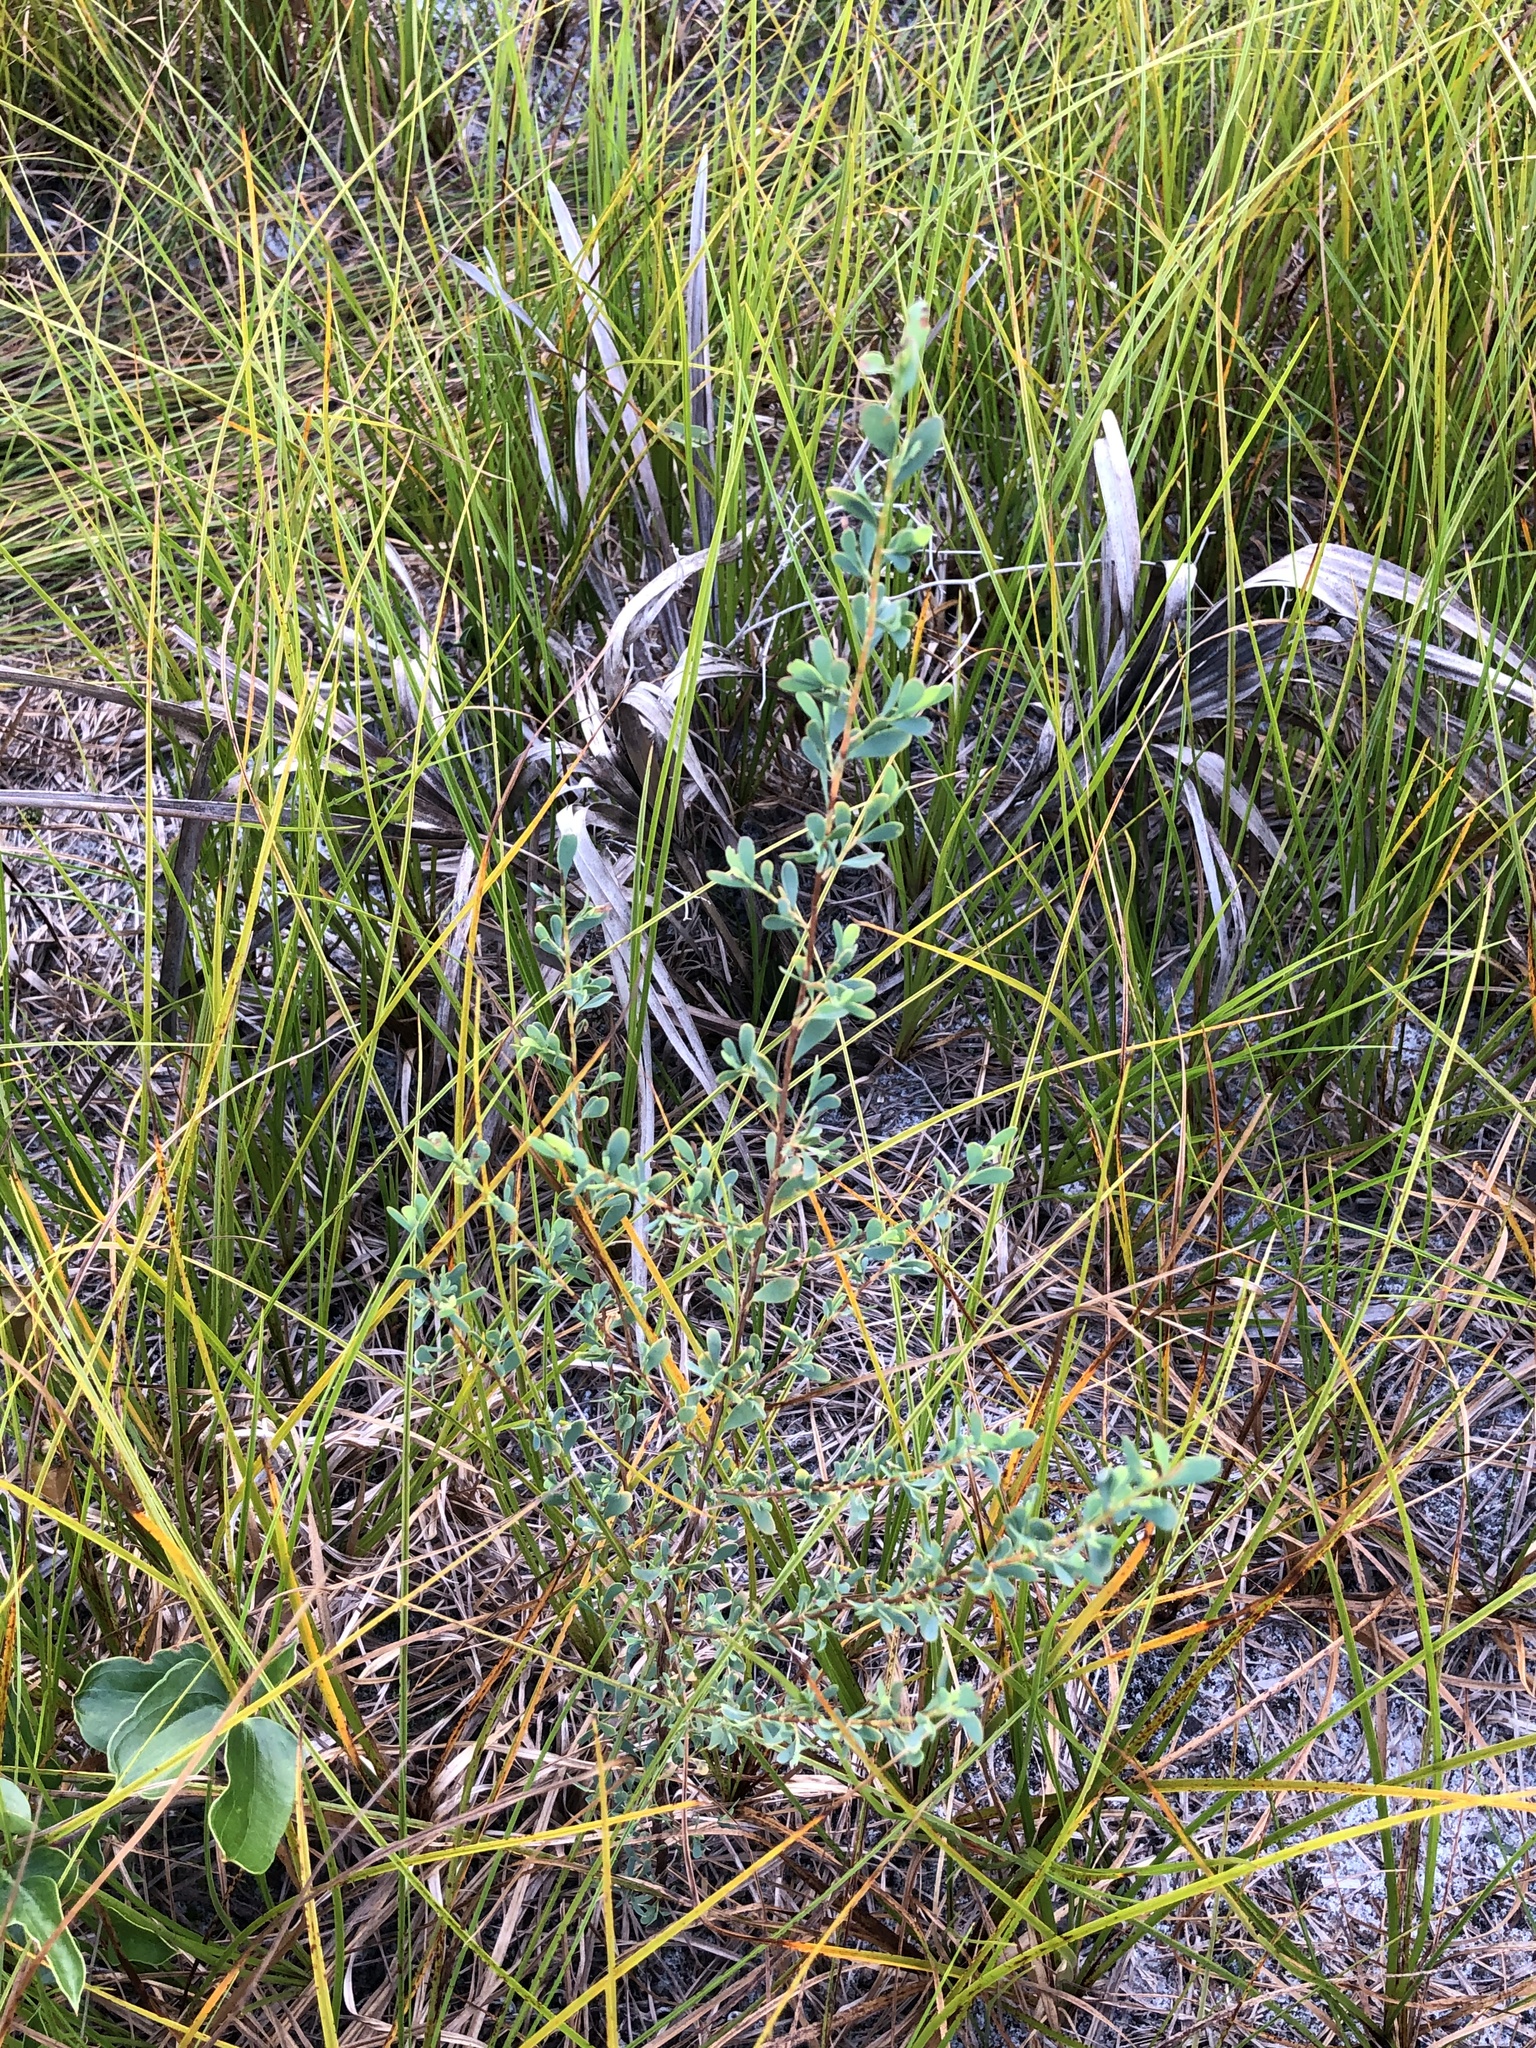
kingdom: Plantae
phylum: Tracheophyta
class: Magnoliopsida
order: Caryophyllales
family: Polygonaceae
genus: Polygonella
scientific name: Polygonella polygama
